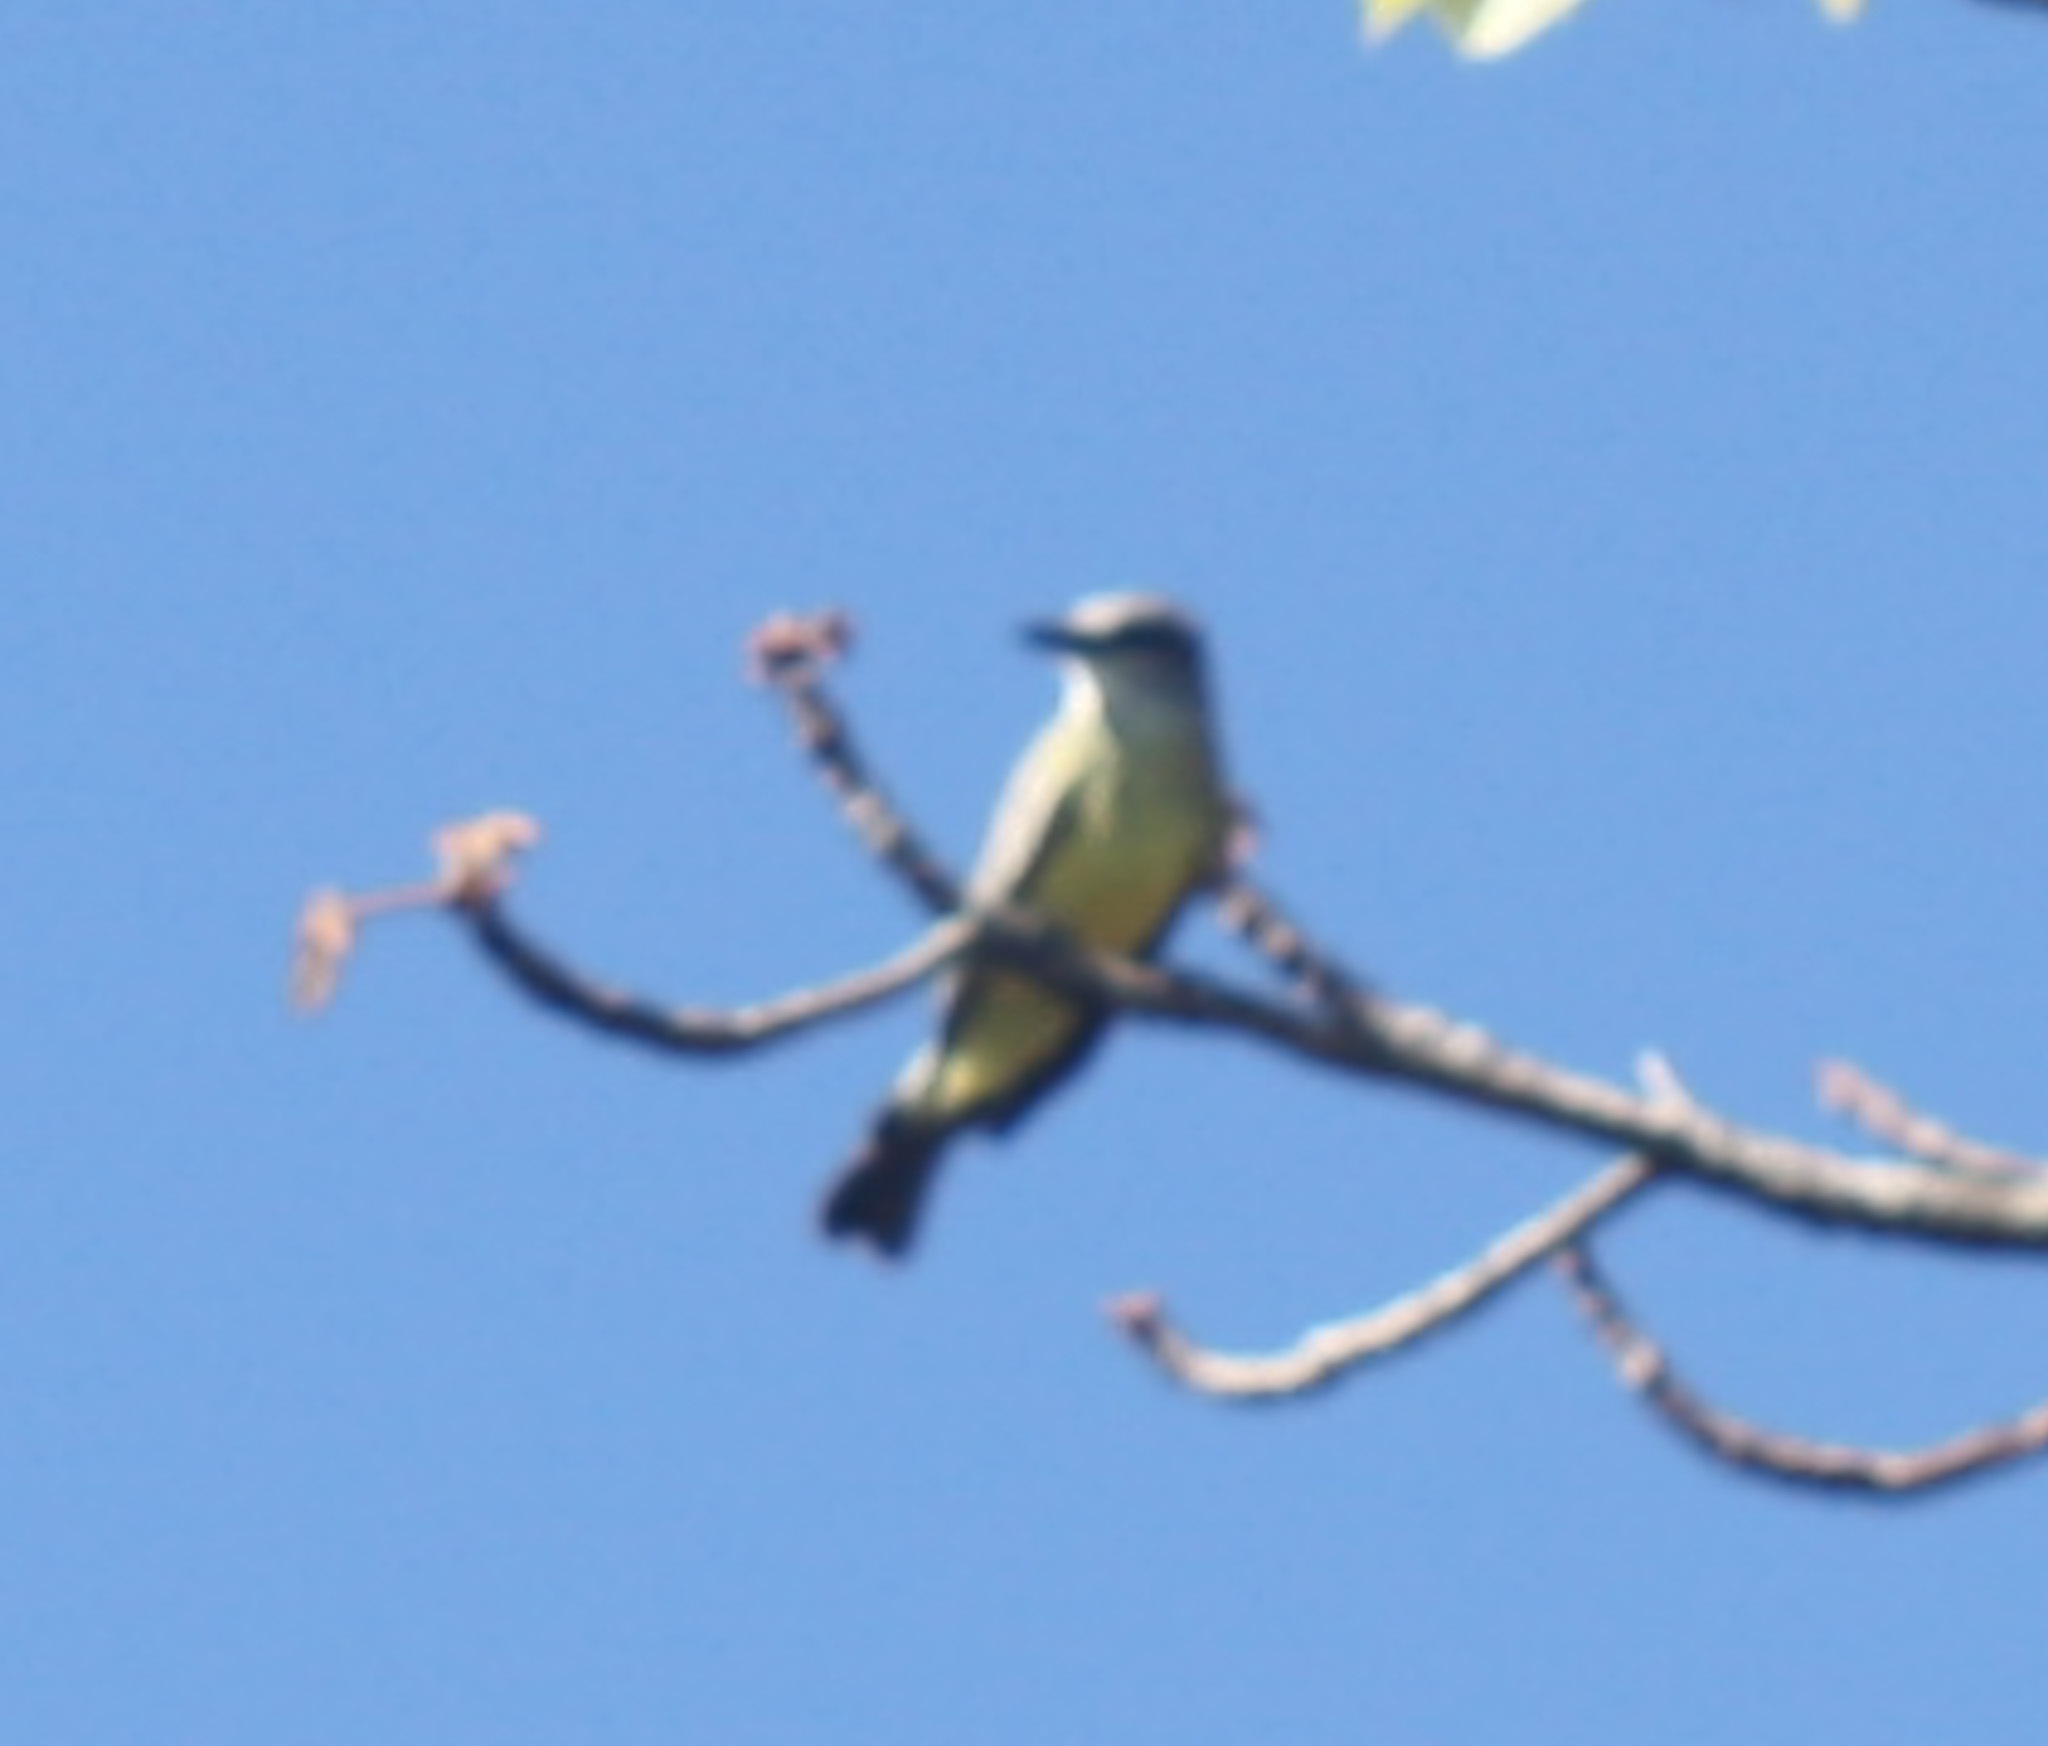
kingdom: Animalia
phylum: Chordata
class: Aves
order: Passeriformes
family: Tyrannidae
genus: Tyrannus
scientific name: Tyrannus melancholicus
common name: Tropical kingbird
